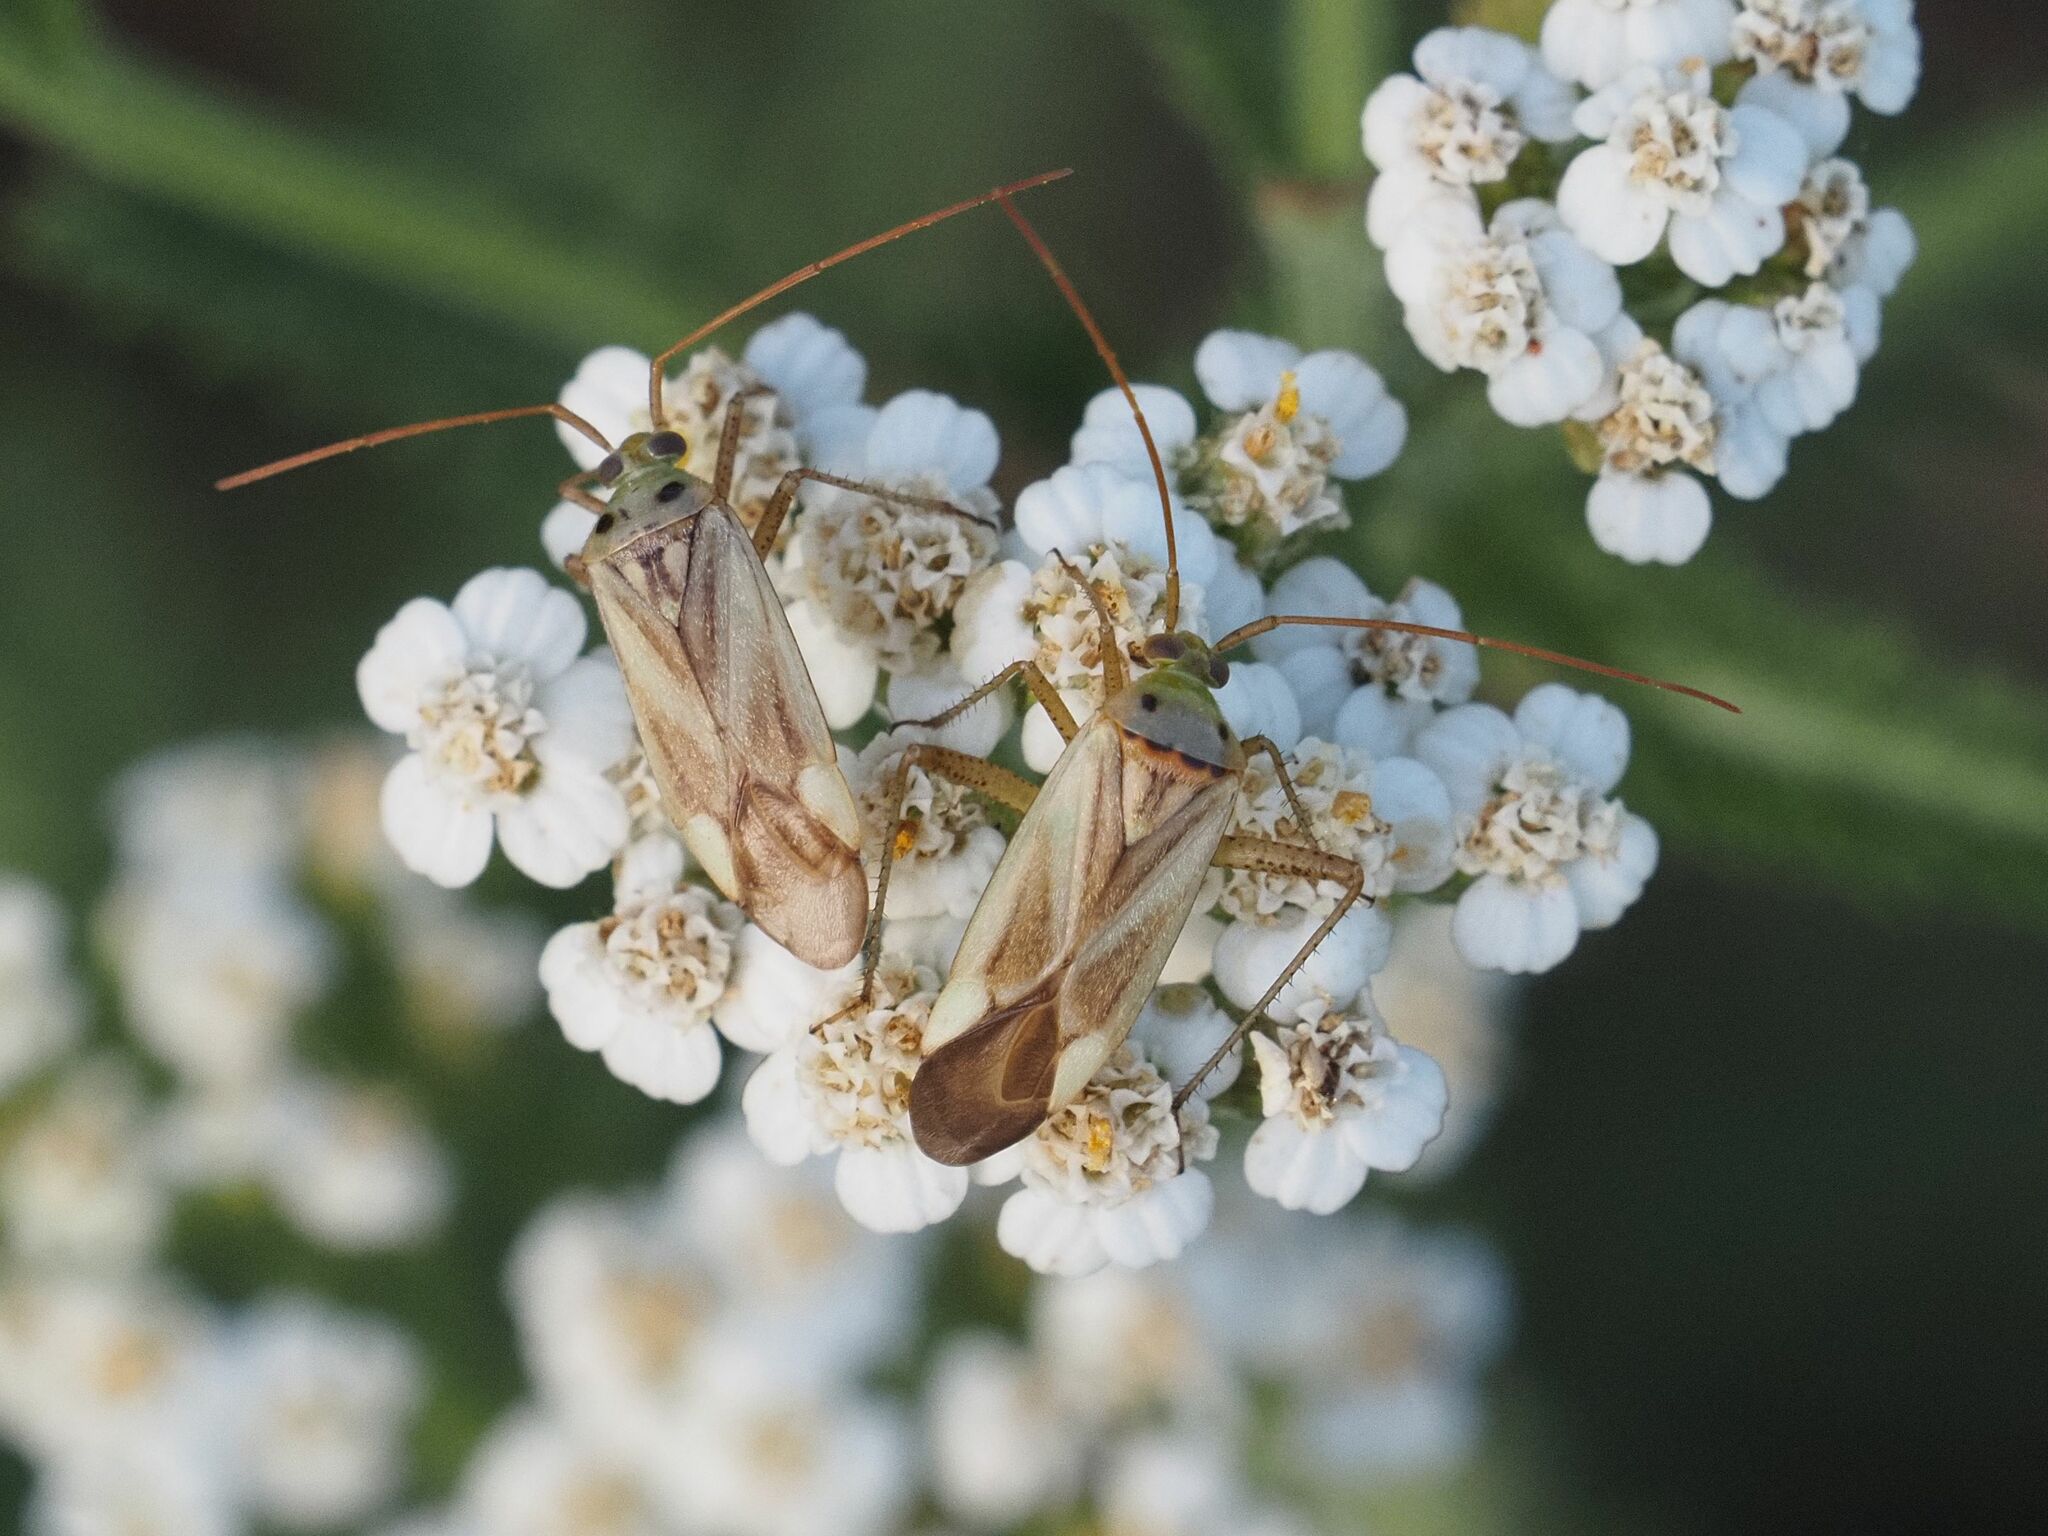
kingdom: Animalia
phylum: Arthropoda
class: Insecta
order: Hemiptera
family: Miridae
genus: Adelphocoris
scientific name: Adelphocoris lineolatus
